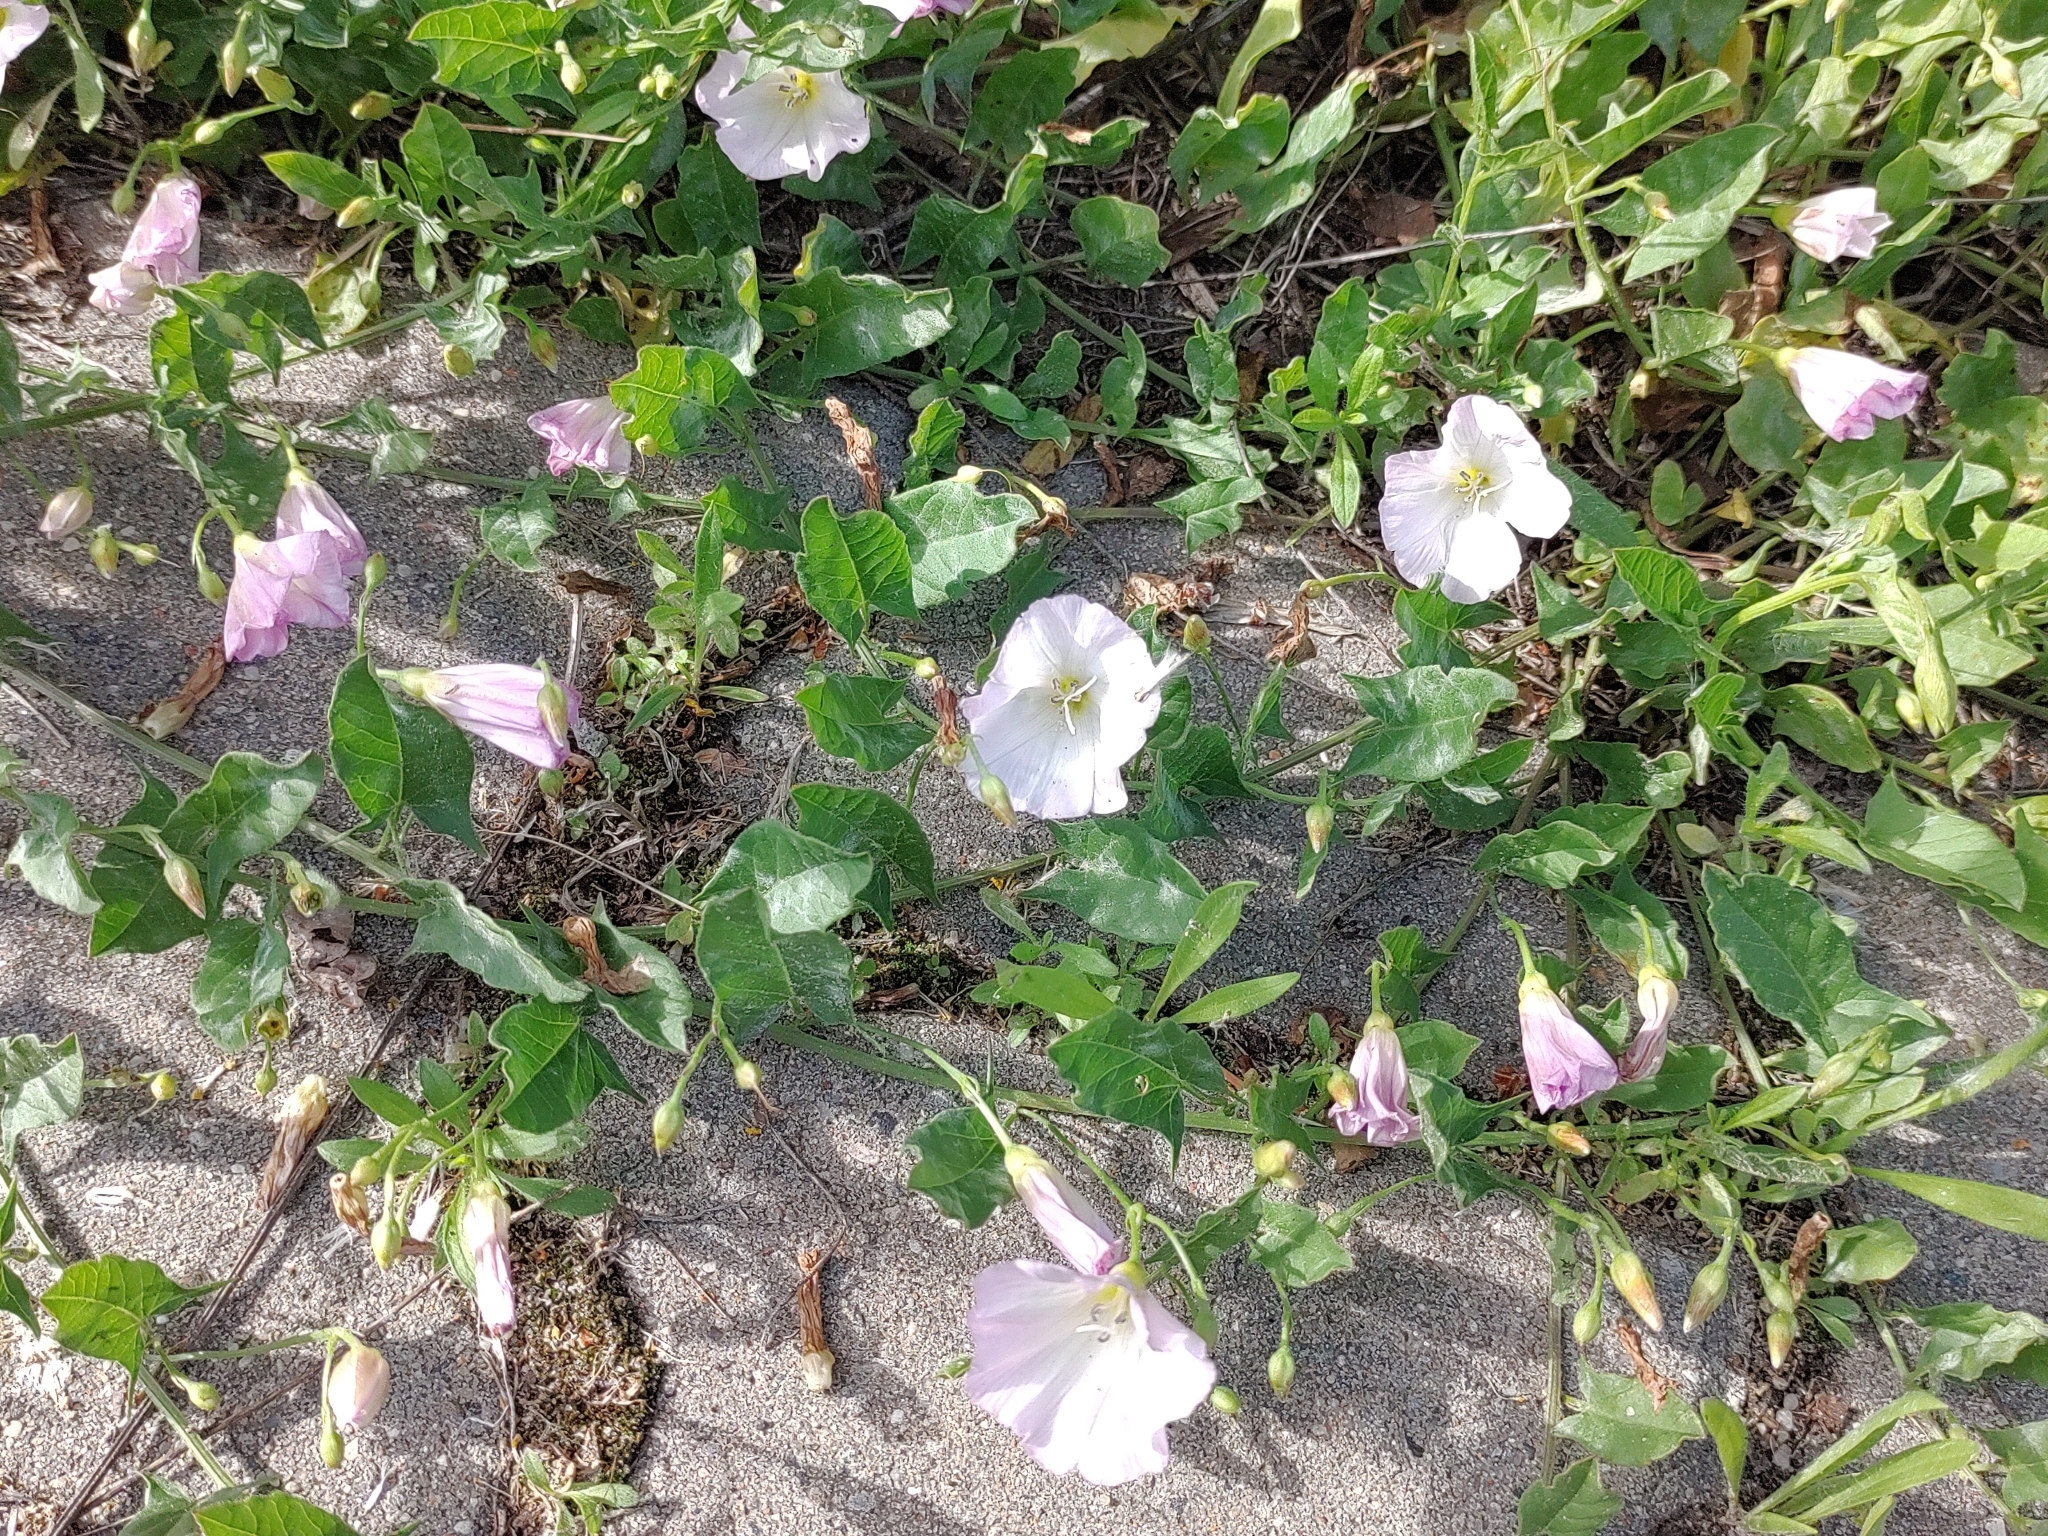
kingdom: Plantae
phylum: Tracheophyta
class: Magnoliopsida
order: Solanales
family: Convolvulaceae
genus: Convolvulus
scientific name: Convolvulus arvensis
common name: Field bindweed
